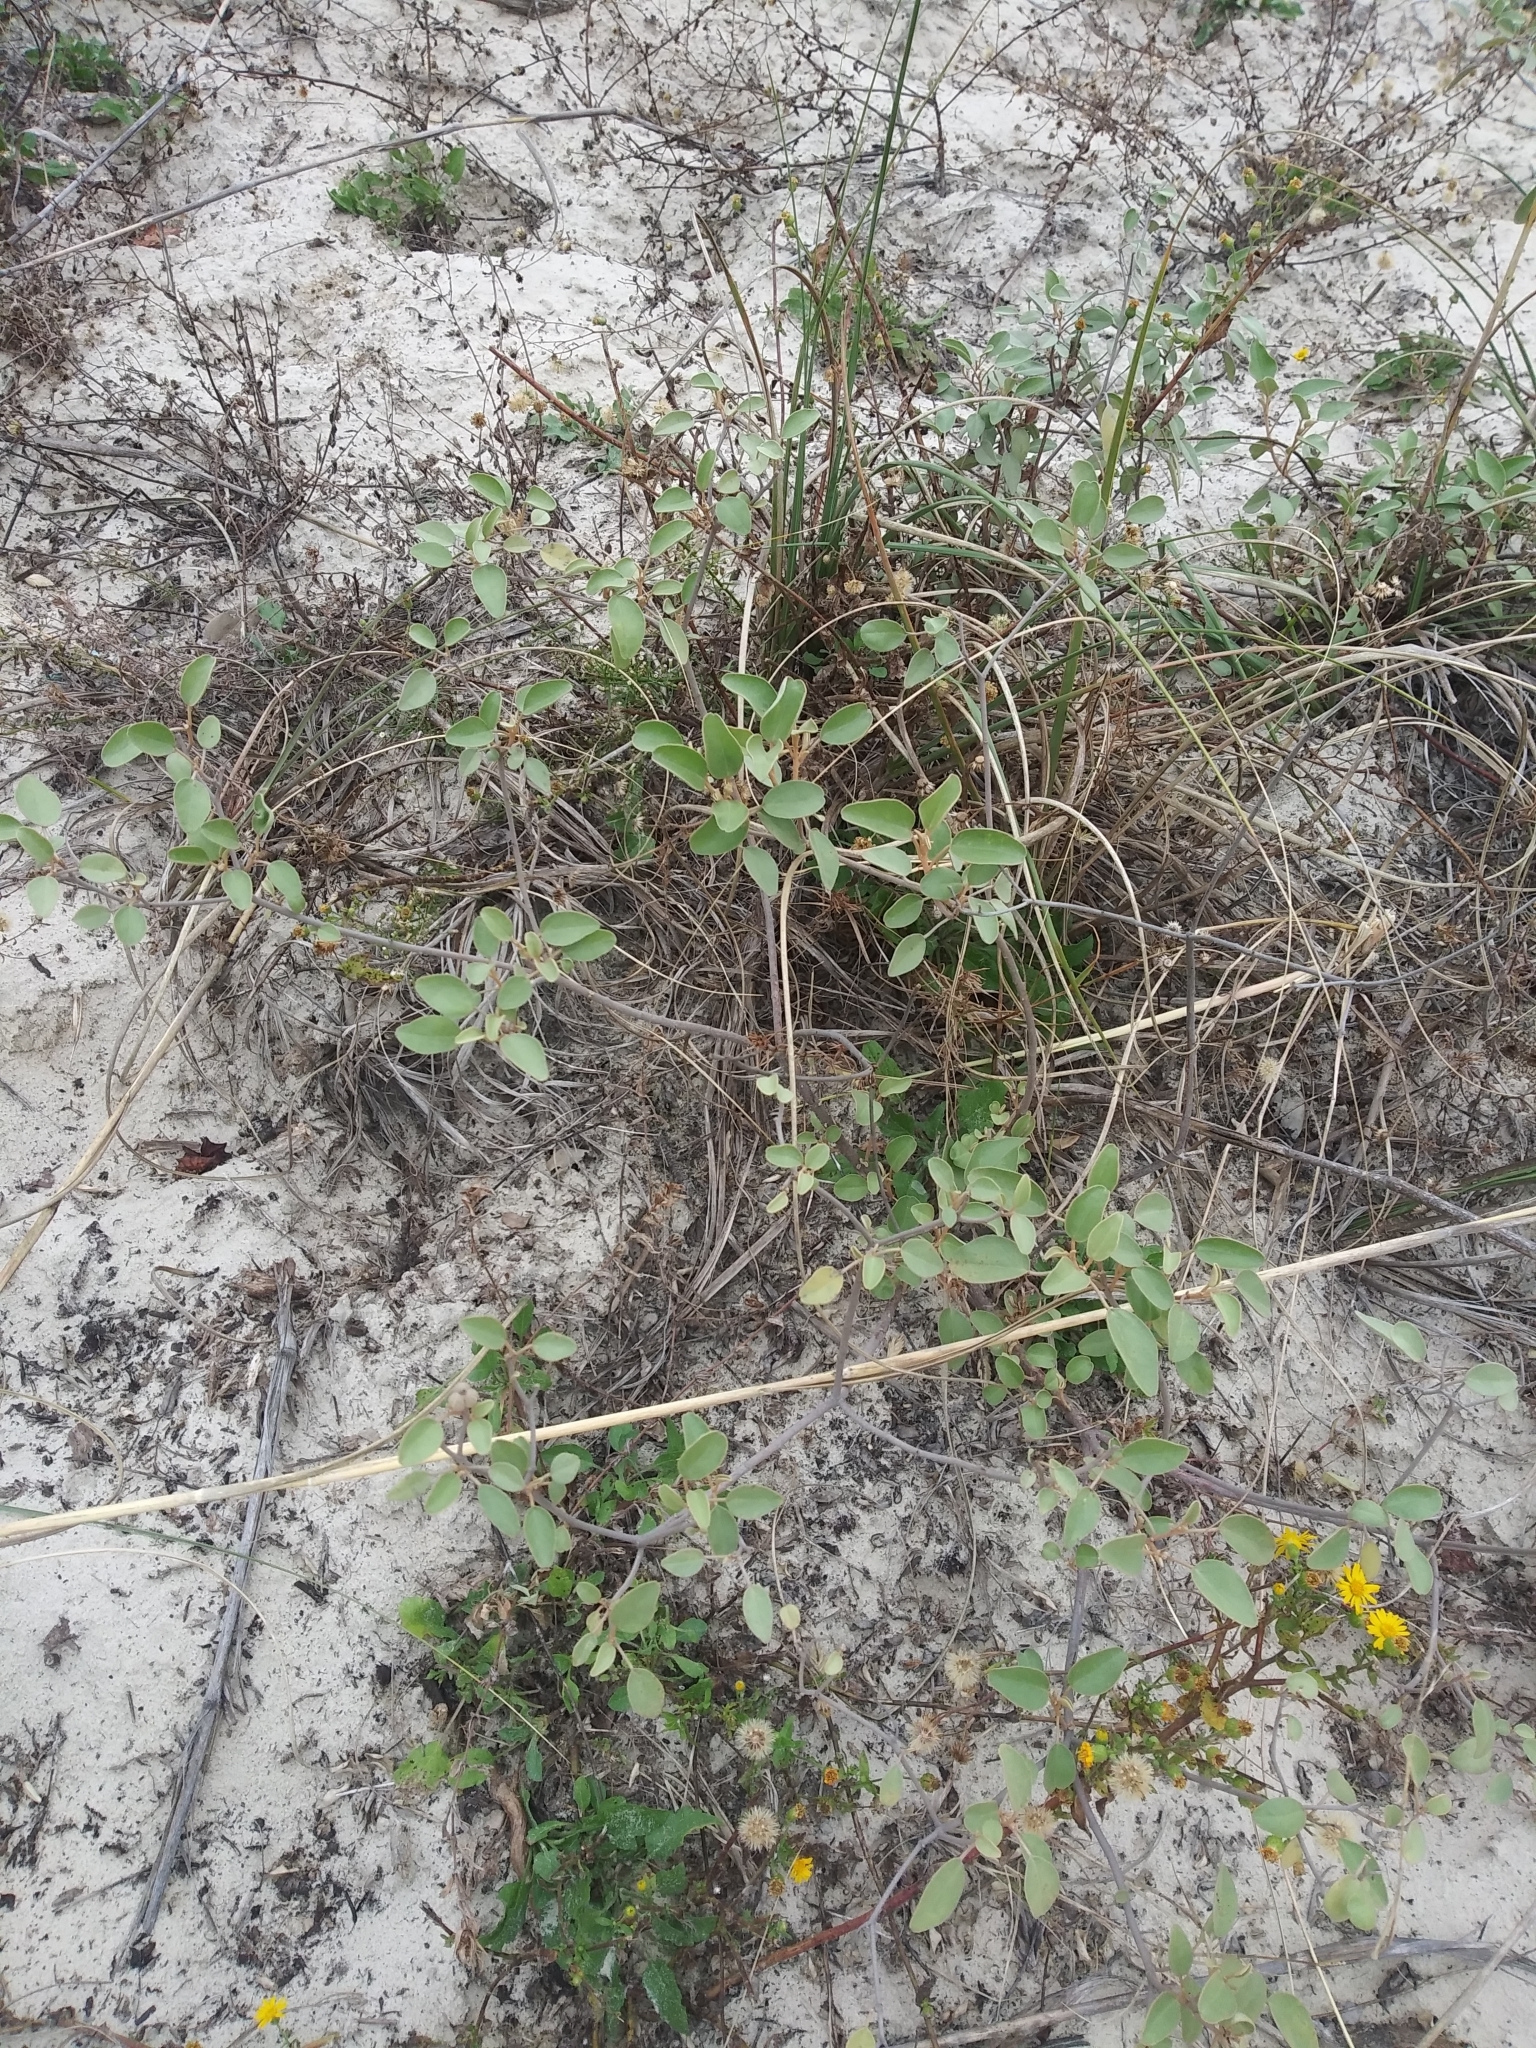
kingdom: Plantae
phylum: Tracheophyta
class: Magnoliopsida
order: Malpighiales
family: Euphorbiaceae
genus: Croton
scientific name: Croton punctatus
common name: Beach-tea
